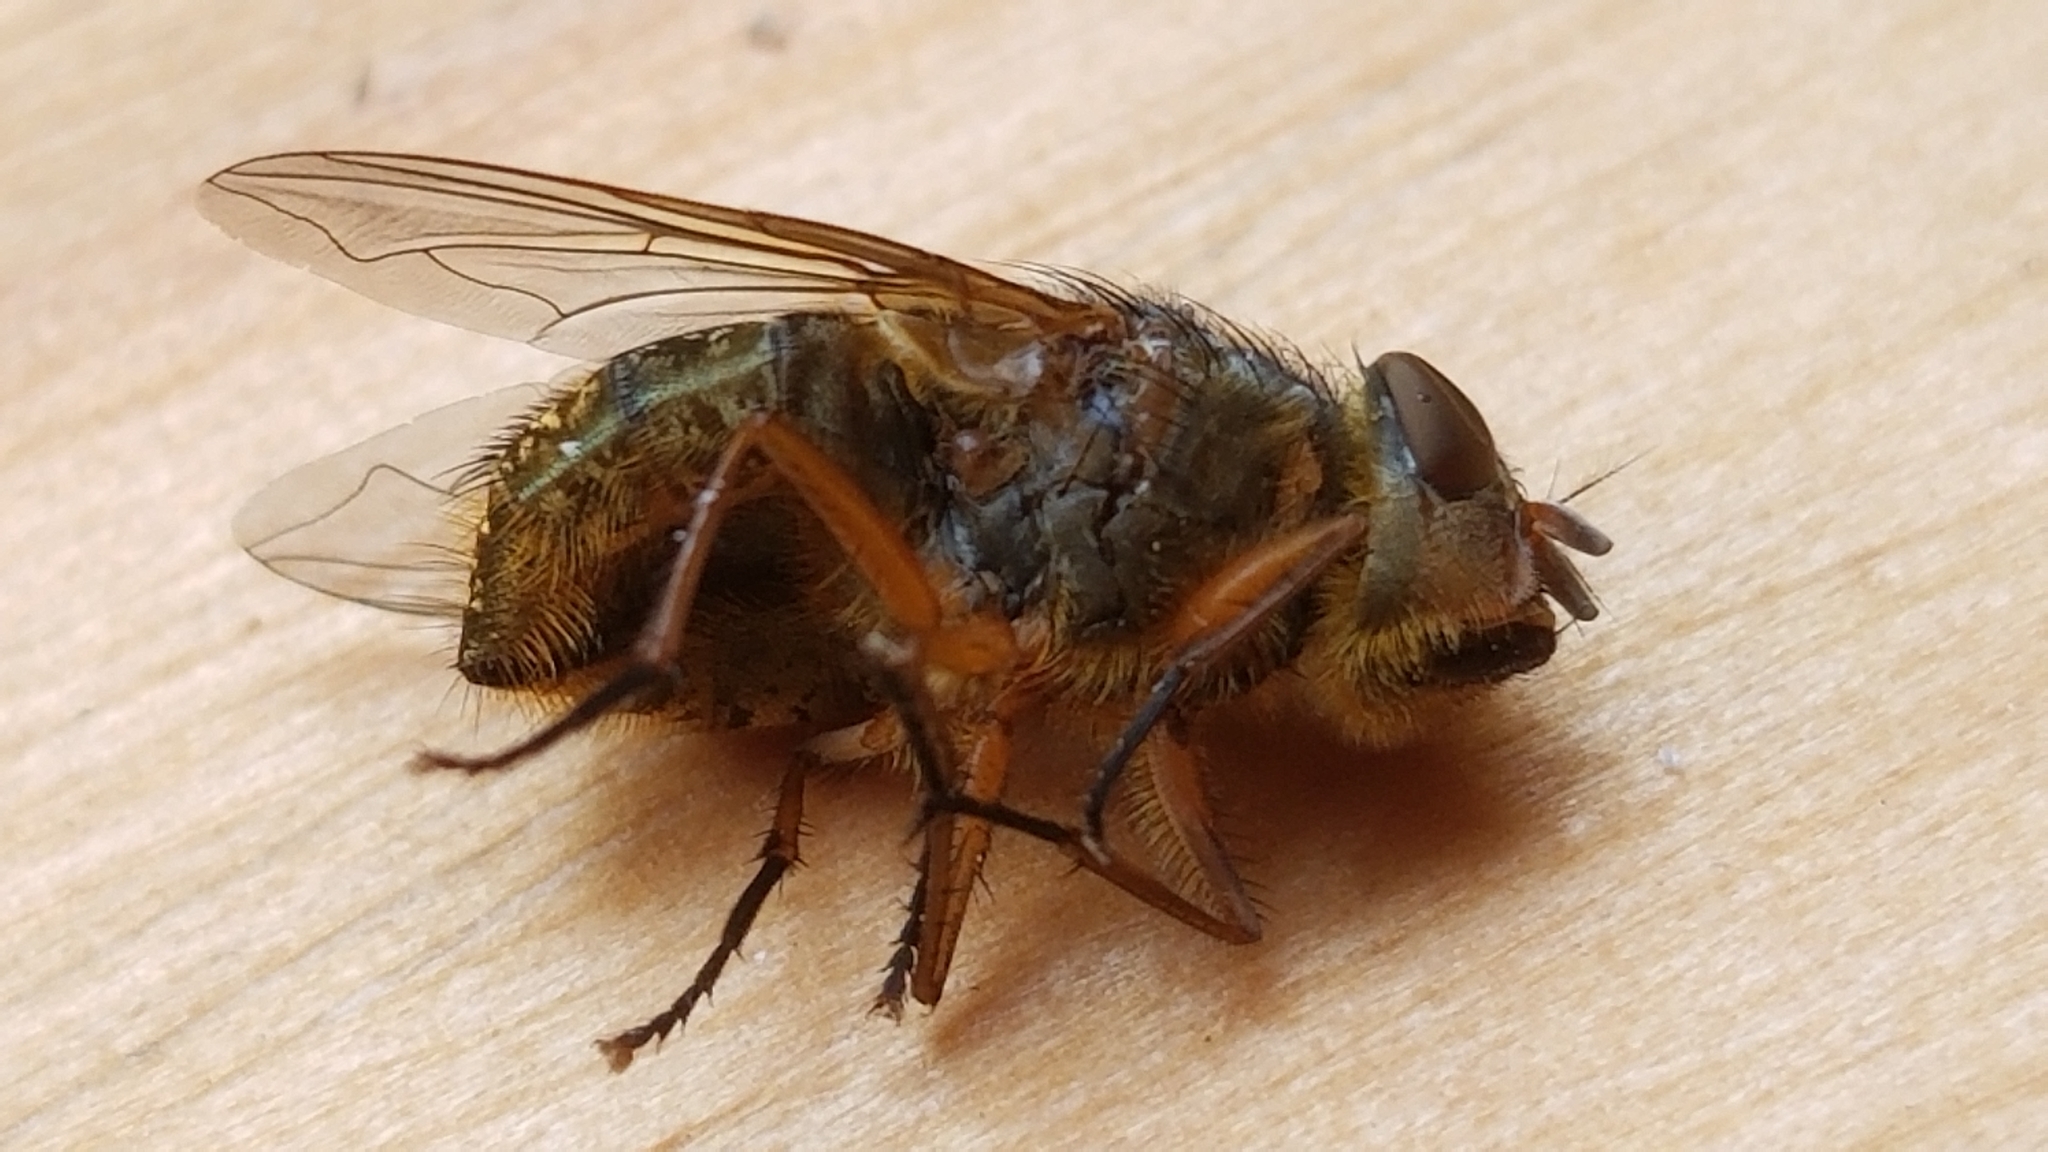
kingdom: Animalia
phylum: Arthropoda
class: Insecta
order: Diptera
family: Calliphoridae
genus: Calliphora
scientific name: Calliphora stygia
